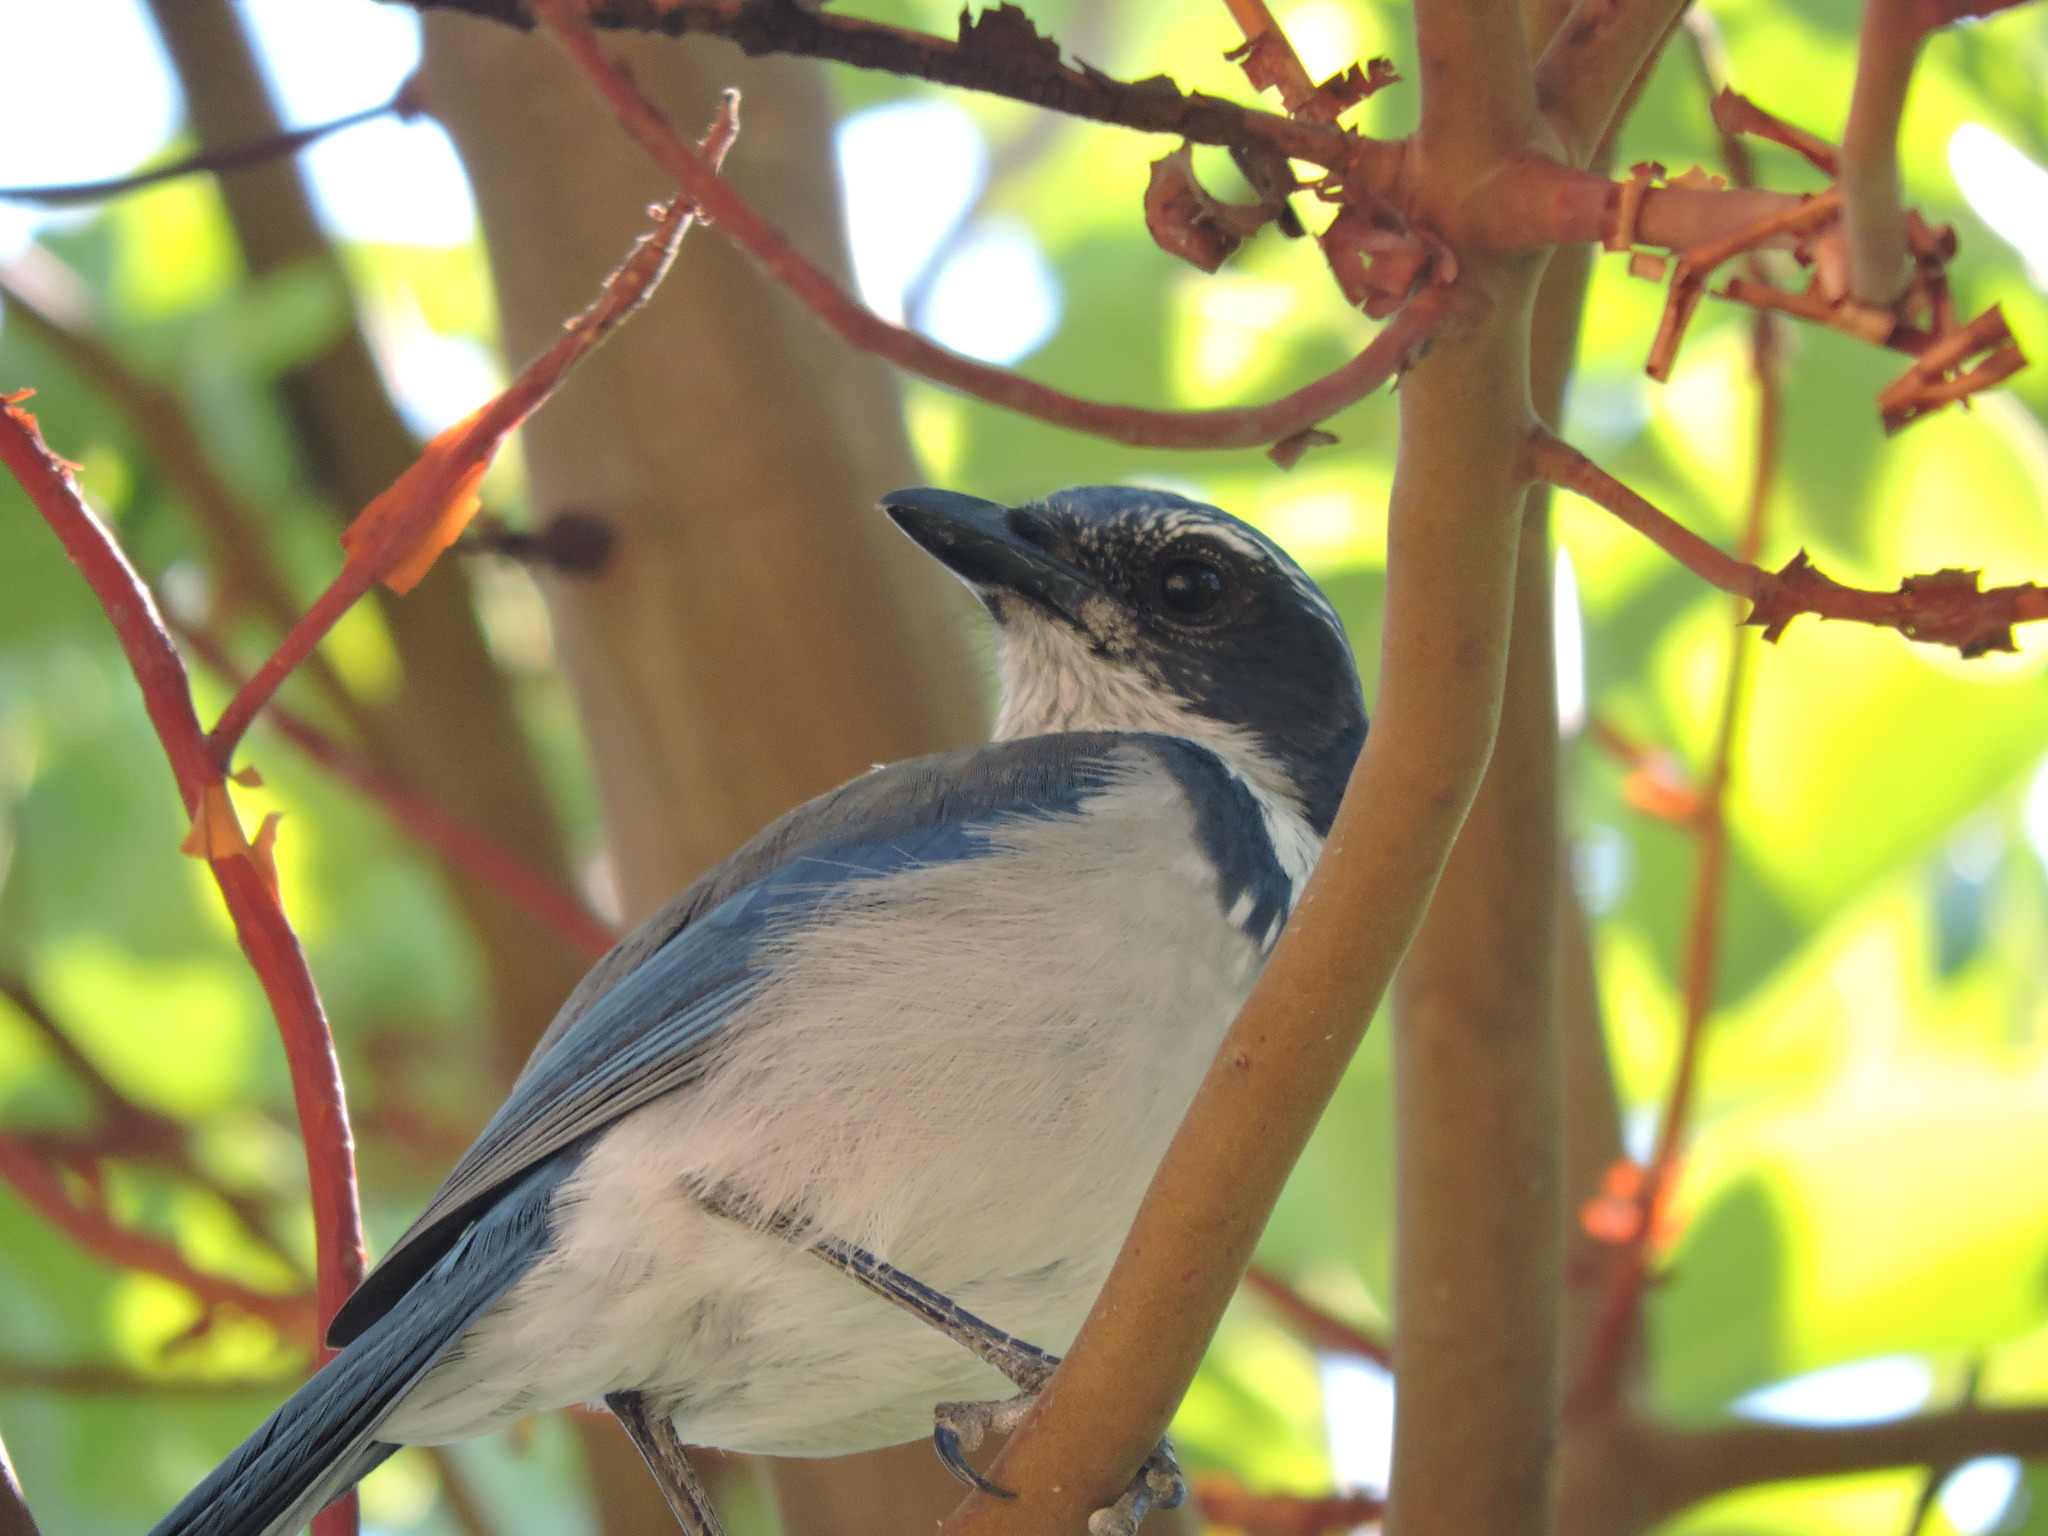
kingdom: Animalia
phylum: Chordata
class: Aves
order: Passeriformes
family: Corvidae
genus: Aphelocoma
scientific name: Aphelocoma californica
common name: California scrub-jay
